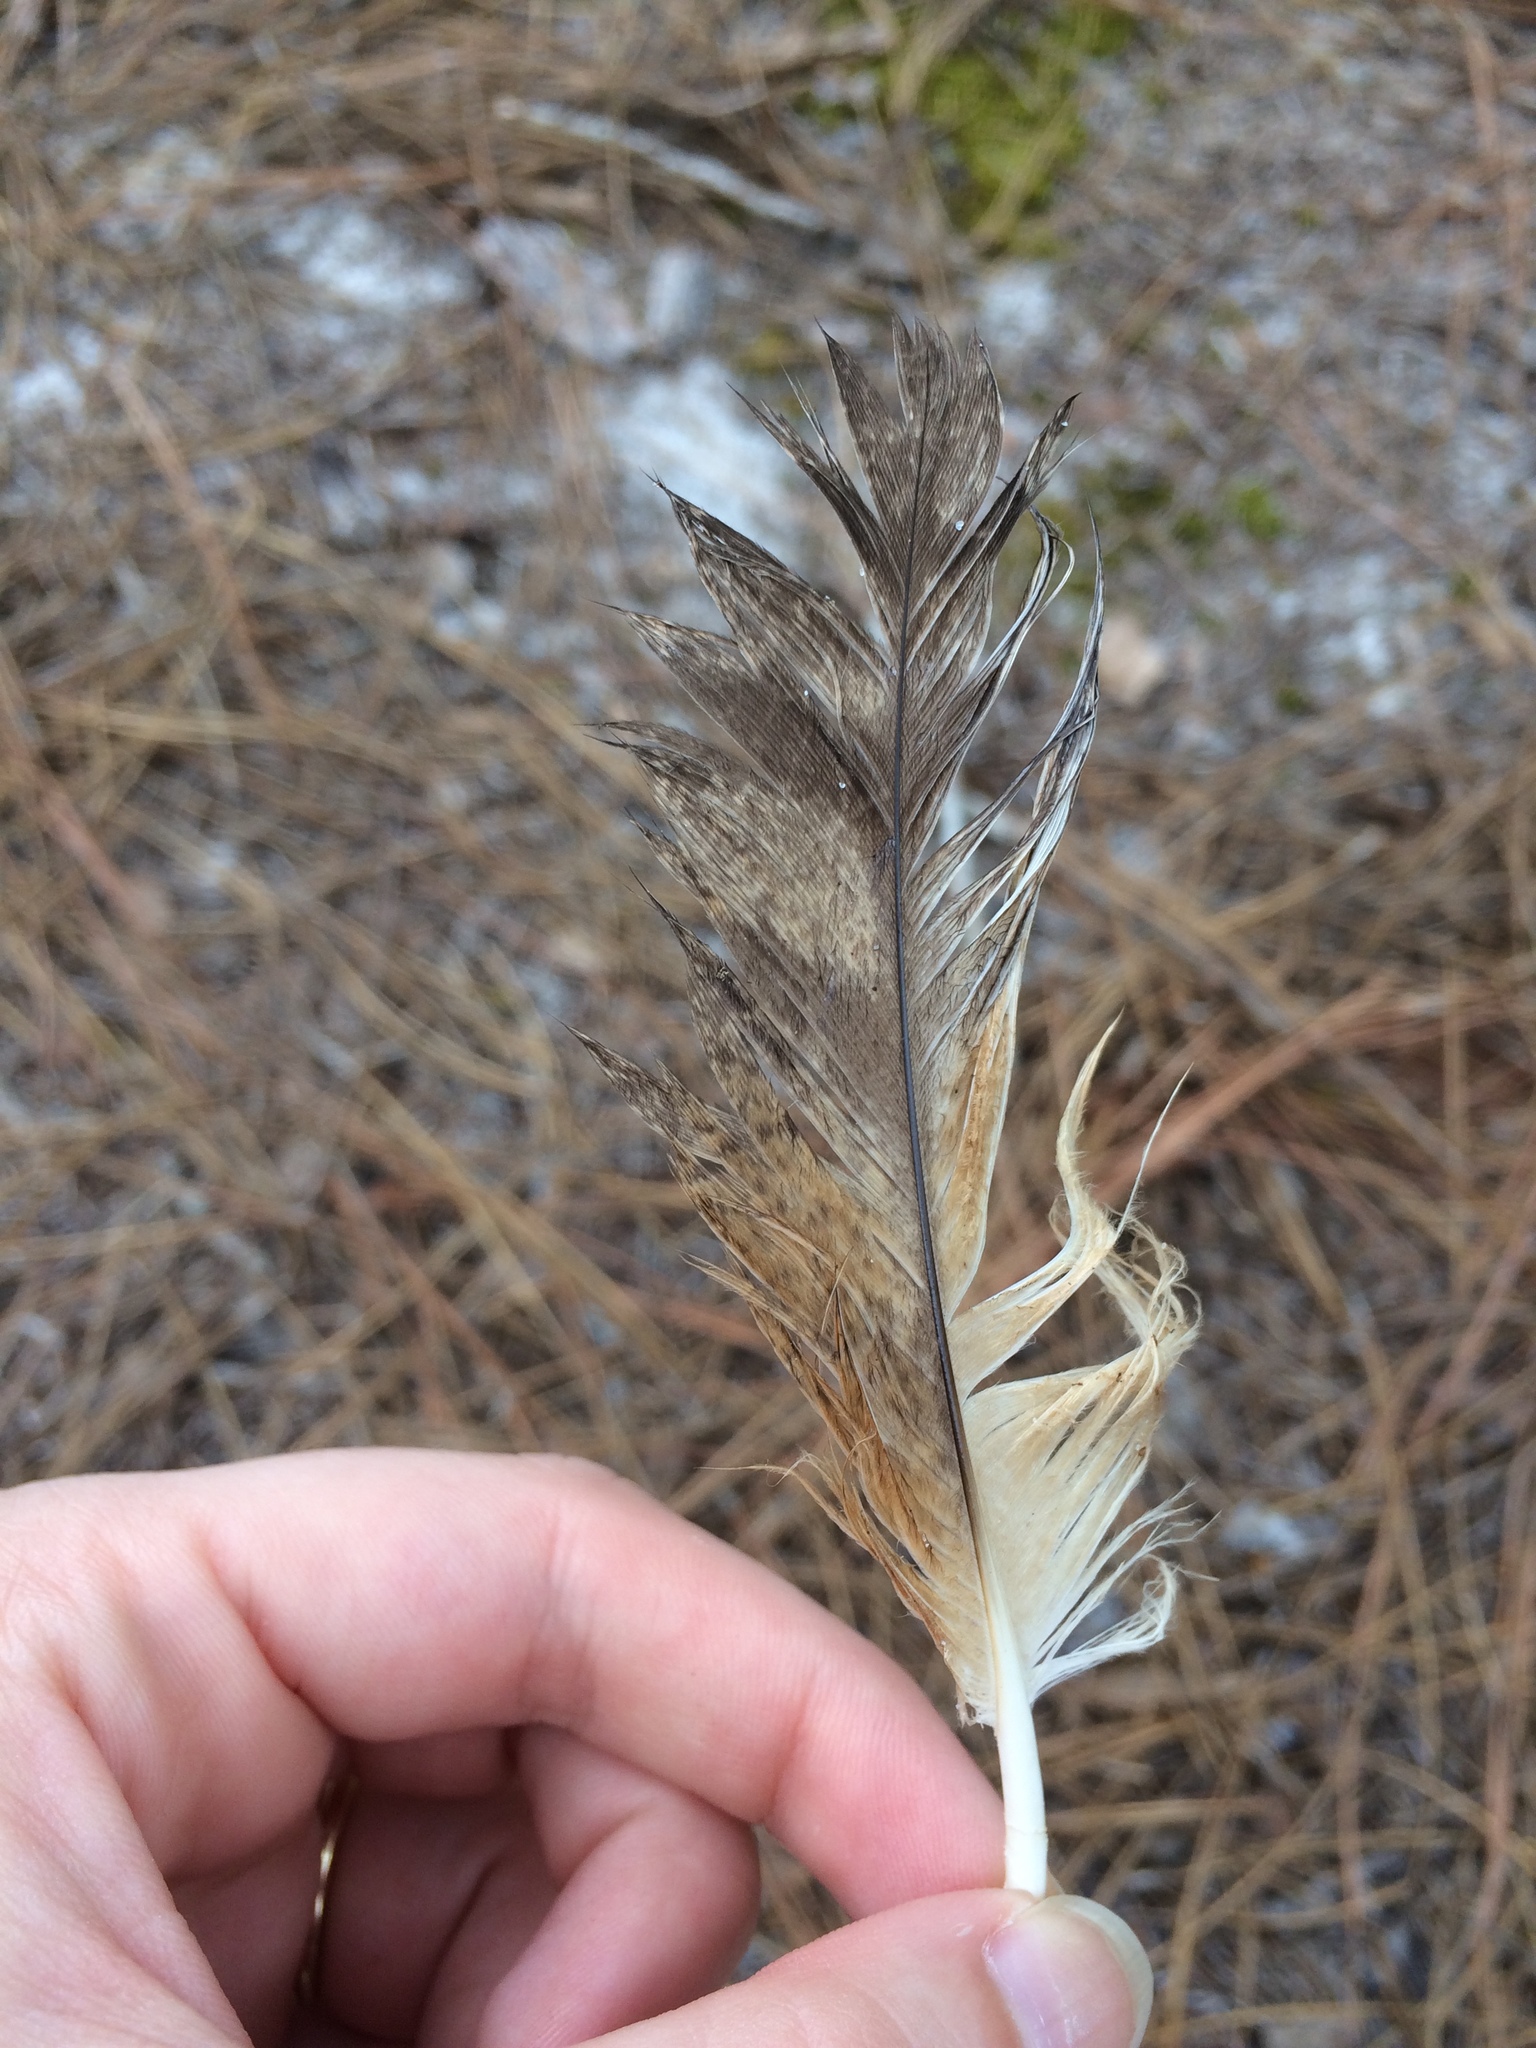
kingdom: Animalia
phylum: Chordata
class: Aves
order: Strigiformes
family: Strigidae
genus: Bubo
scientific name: Bubo virginianus
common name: Great horned owl
